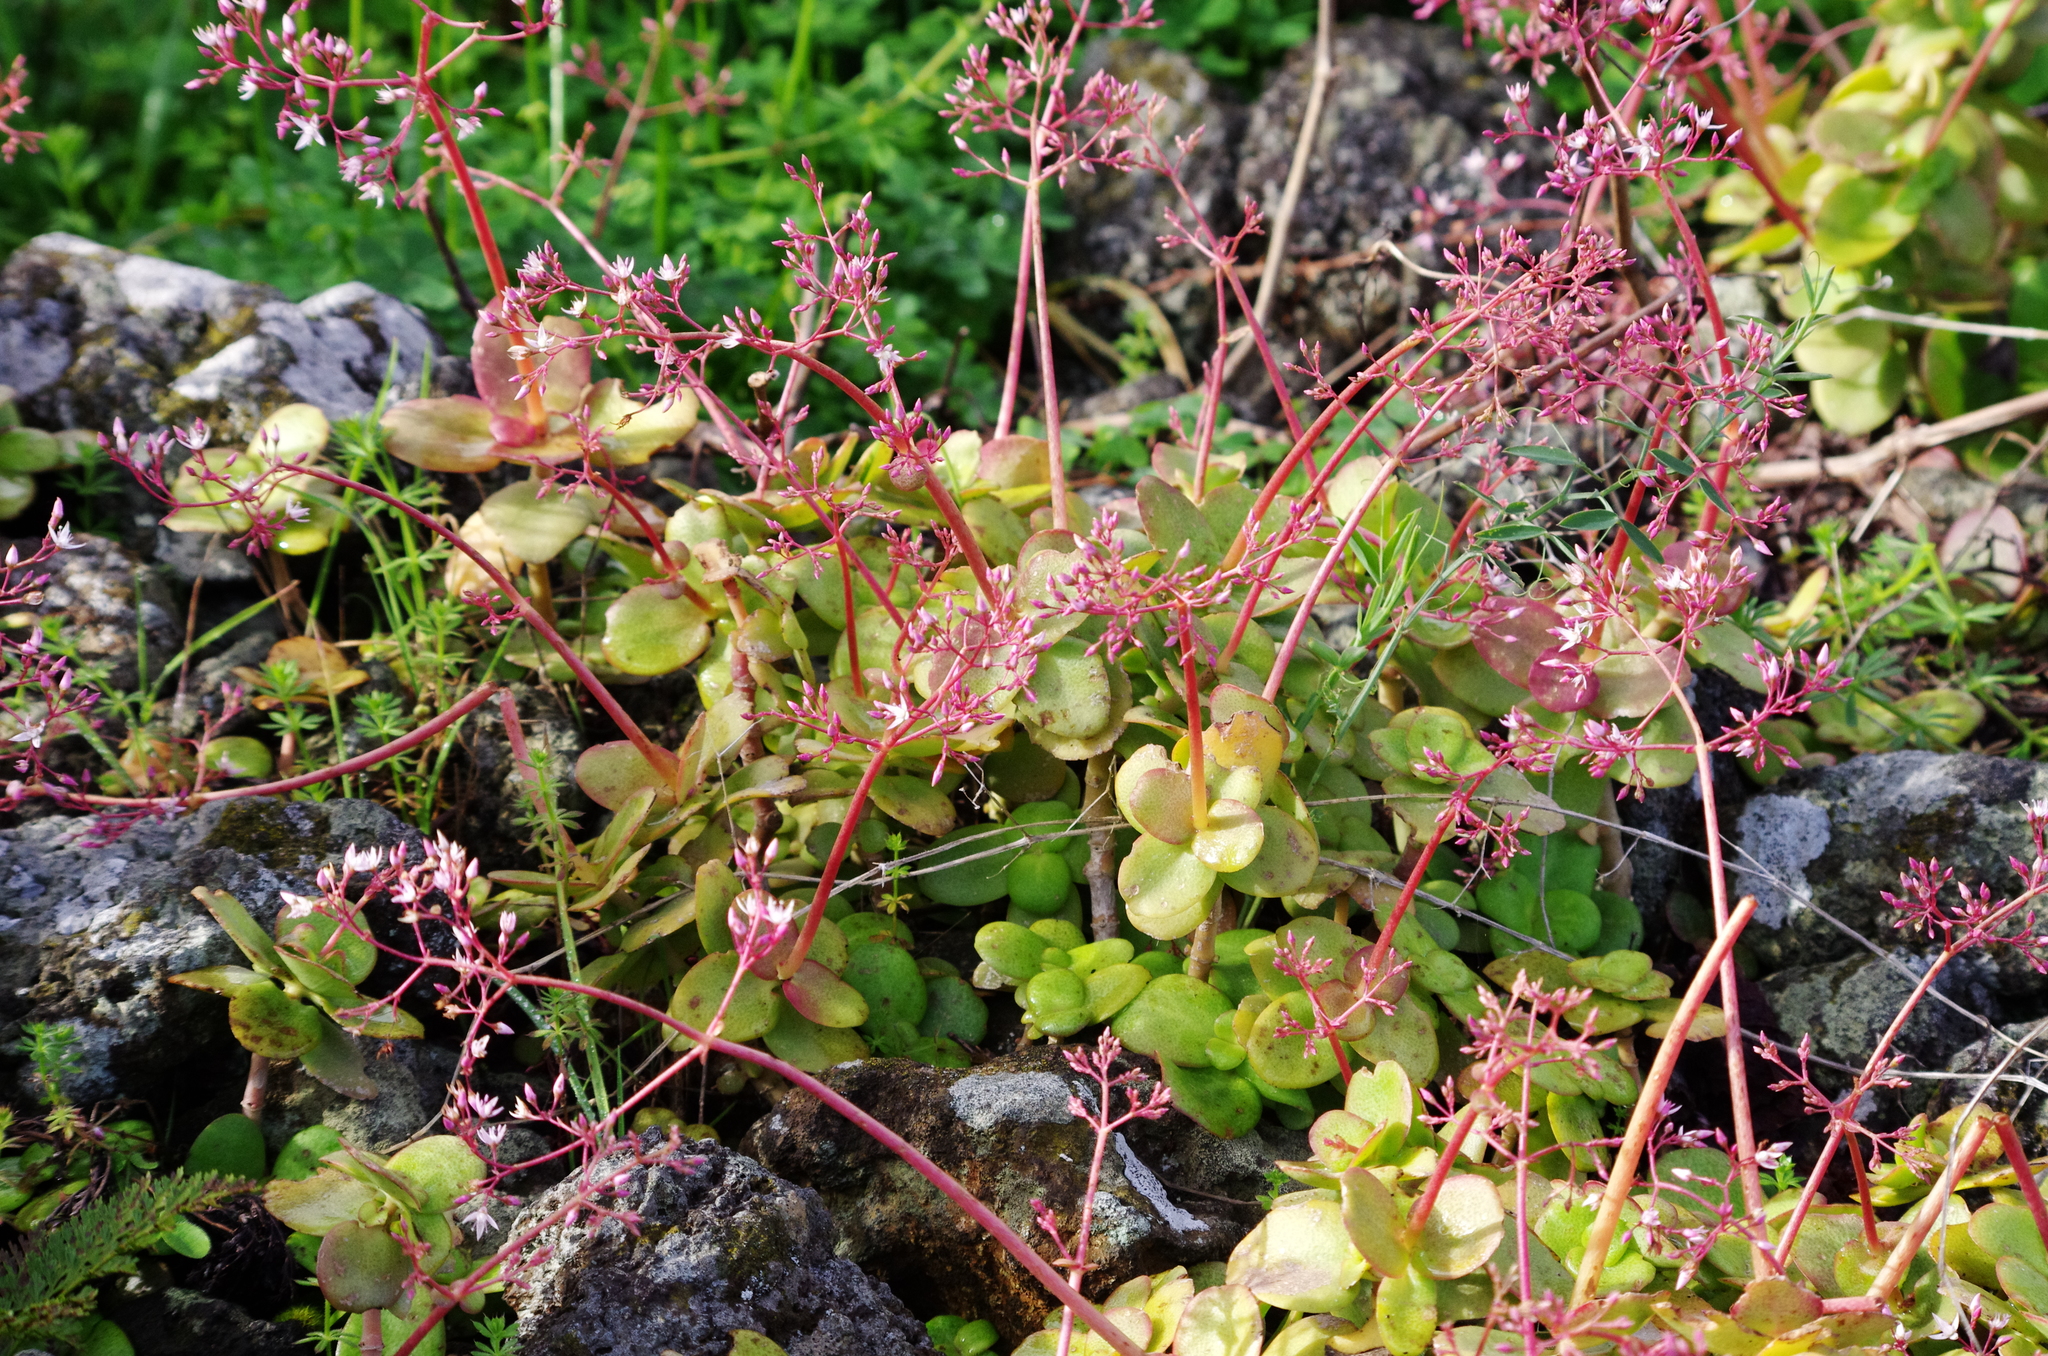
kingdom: Plantae
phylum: Tracheophyta
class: Magnoliopsida
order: Saxifragales
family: Crassulaceae
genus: Crassula
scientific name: Crassula multicava
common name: Cape province pygmyweed
